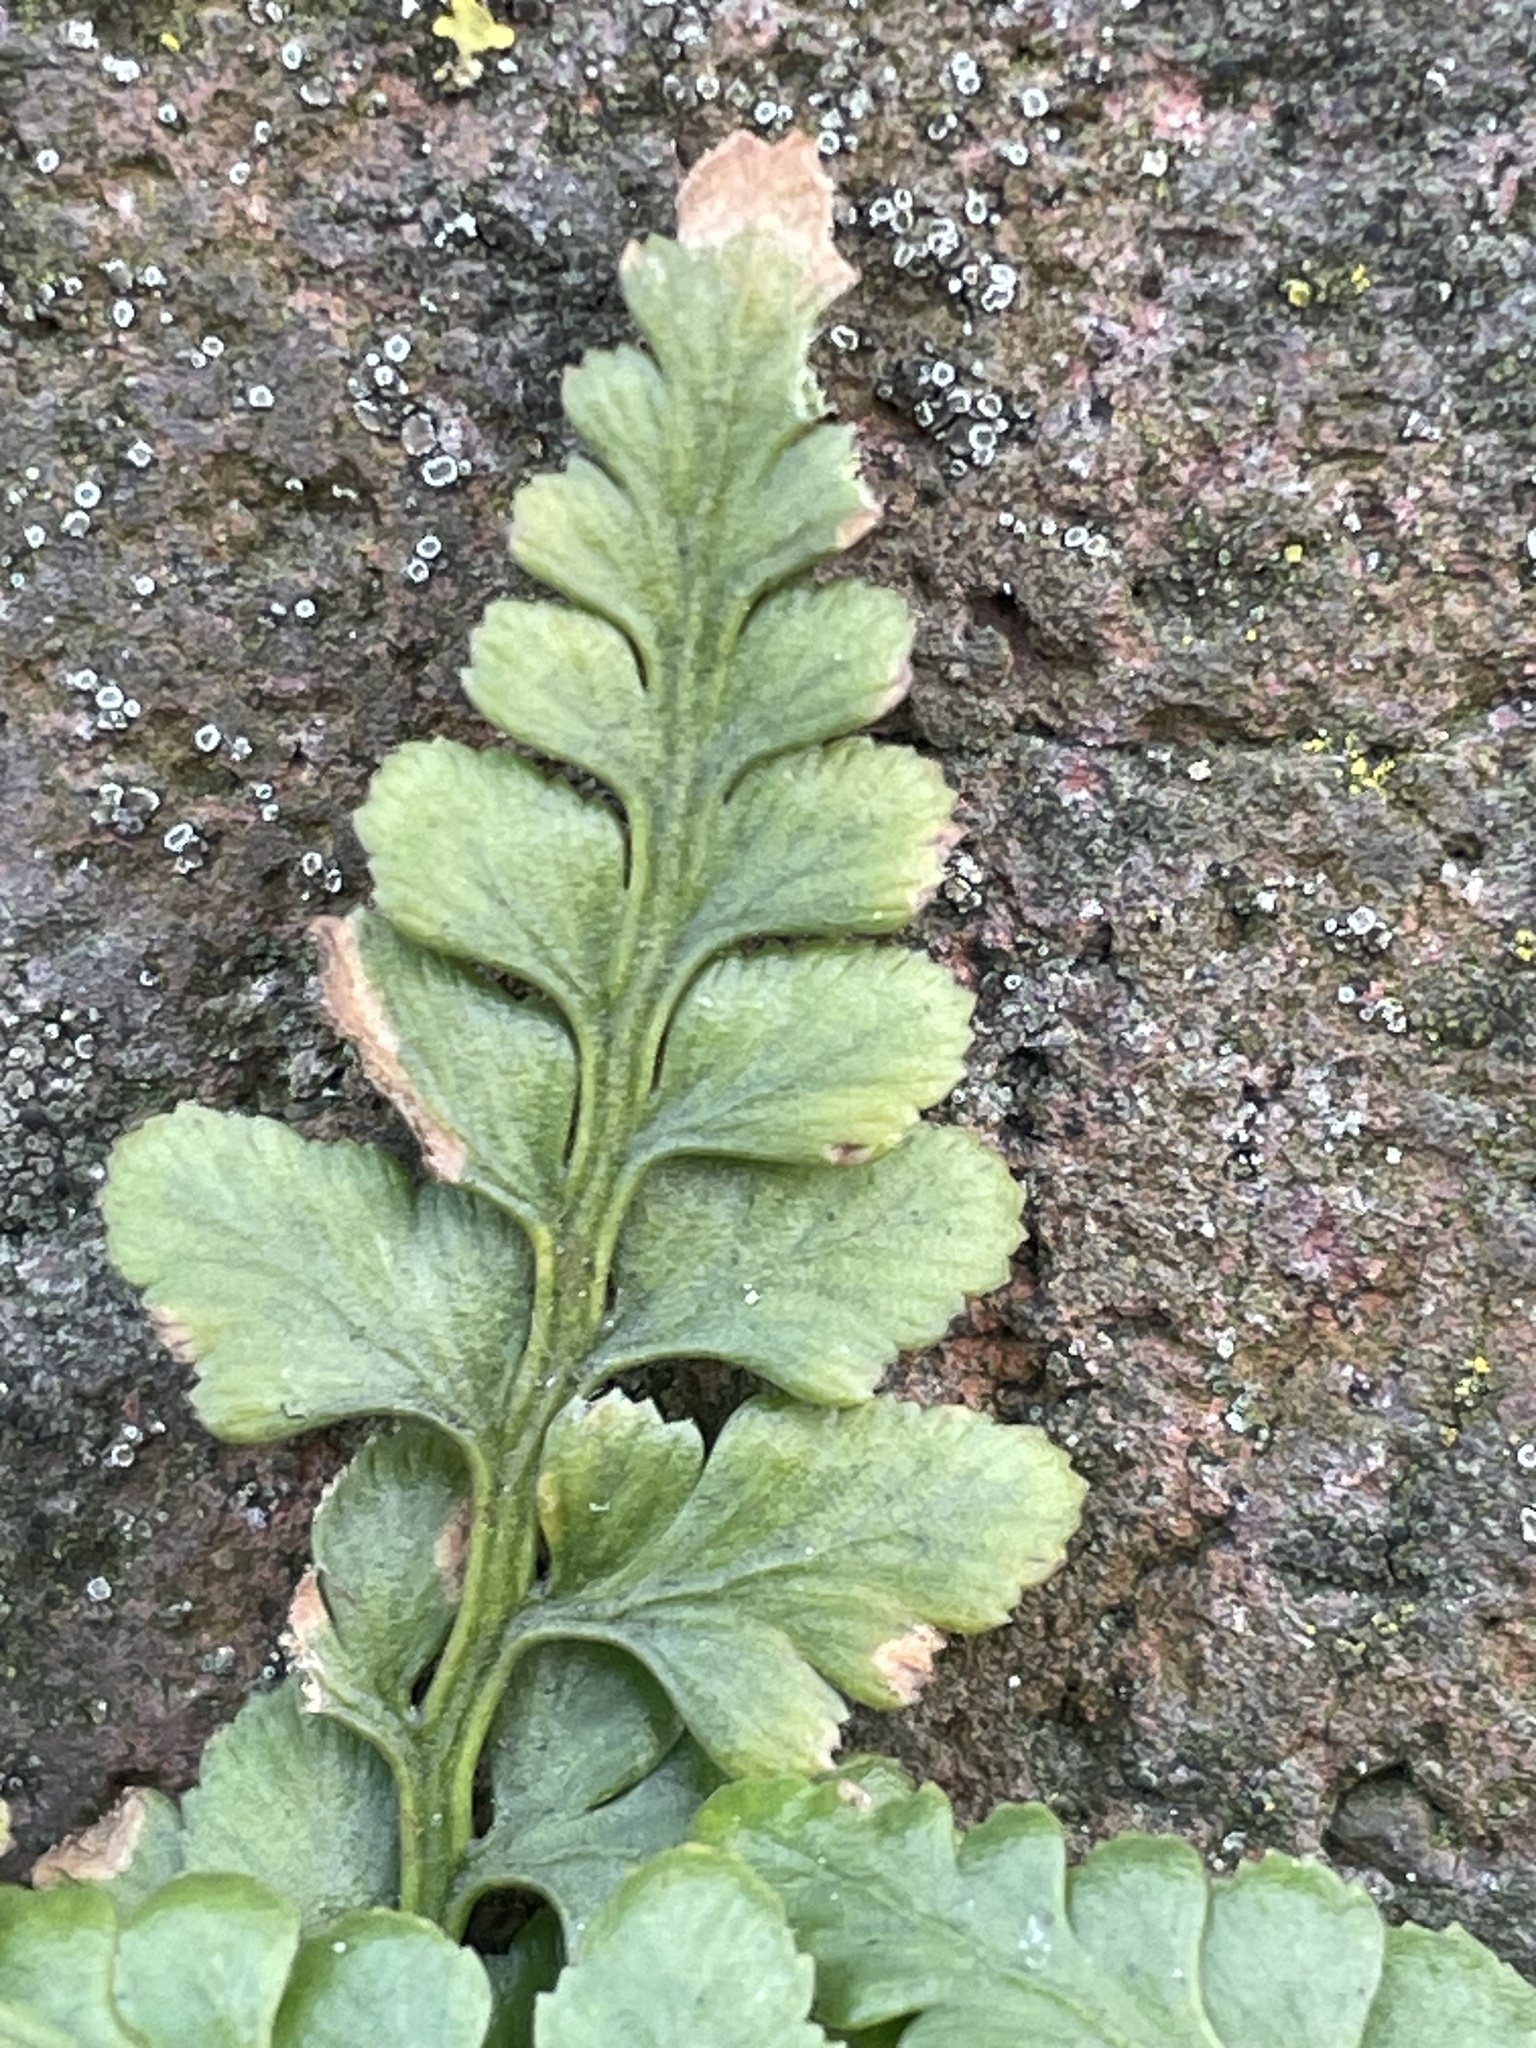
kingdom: Plantae
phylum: Tracheophyta
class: Polypodiopsida
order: Polypodiales
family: Aspleniaceae
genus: Asplenium
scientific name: Asplenium adiantum-nigrum
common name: Black spleenwort
